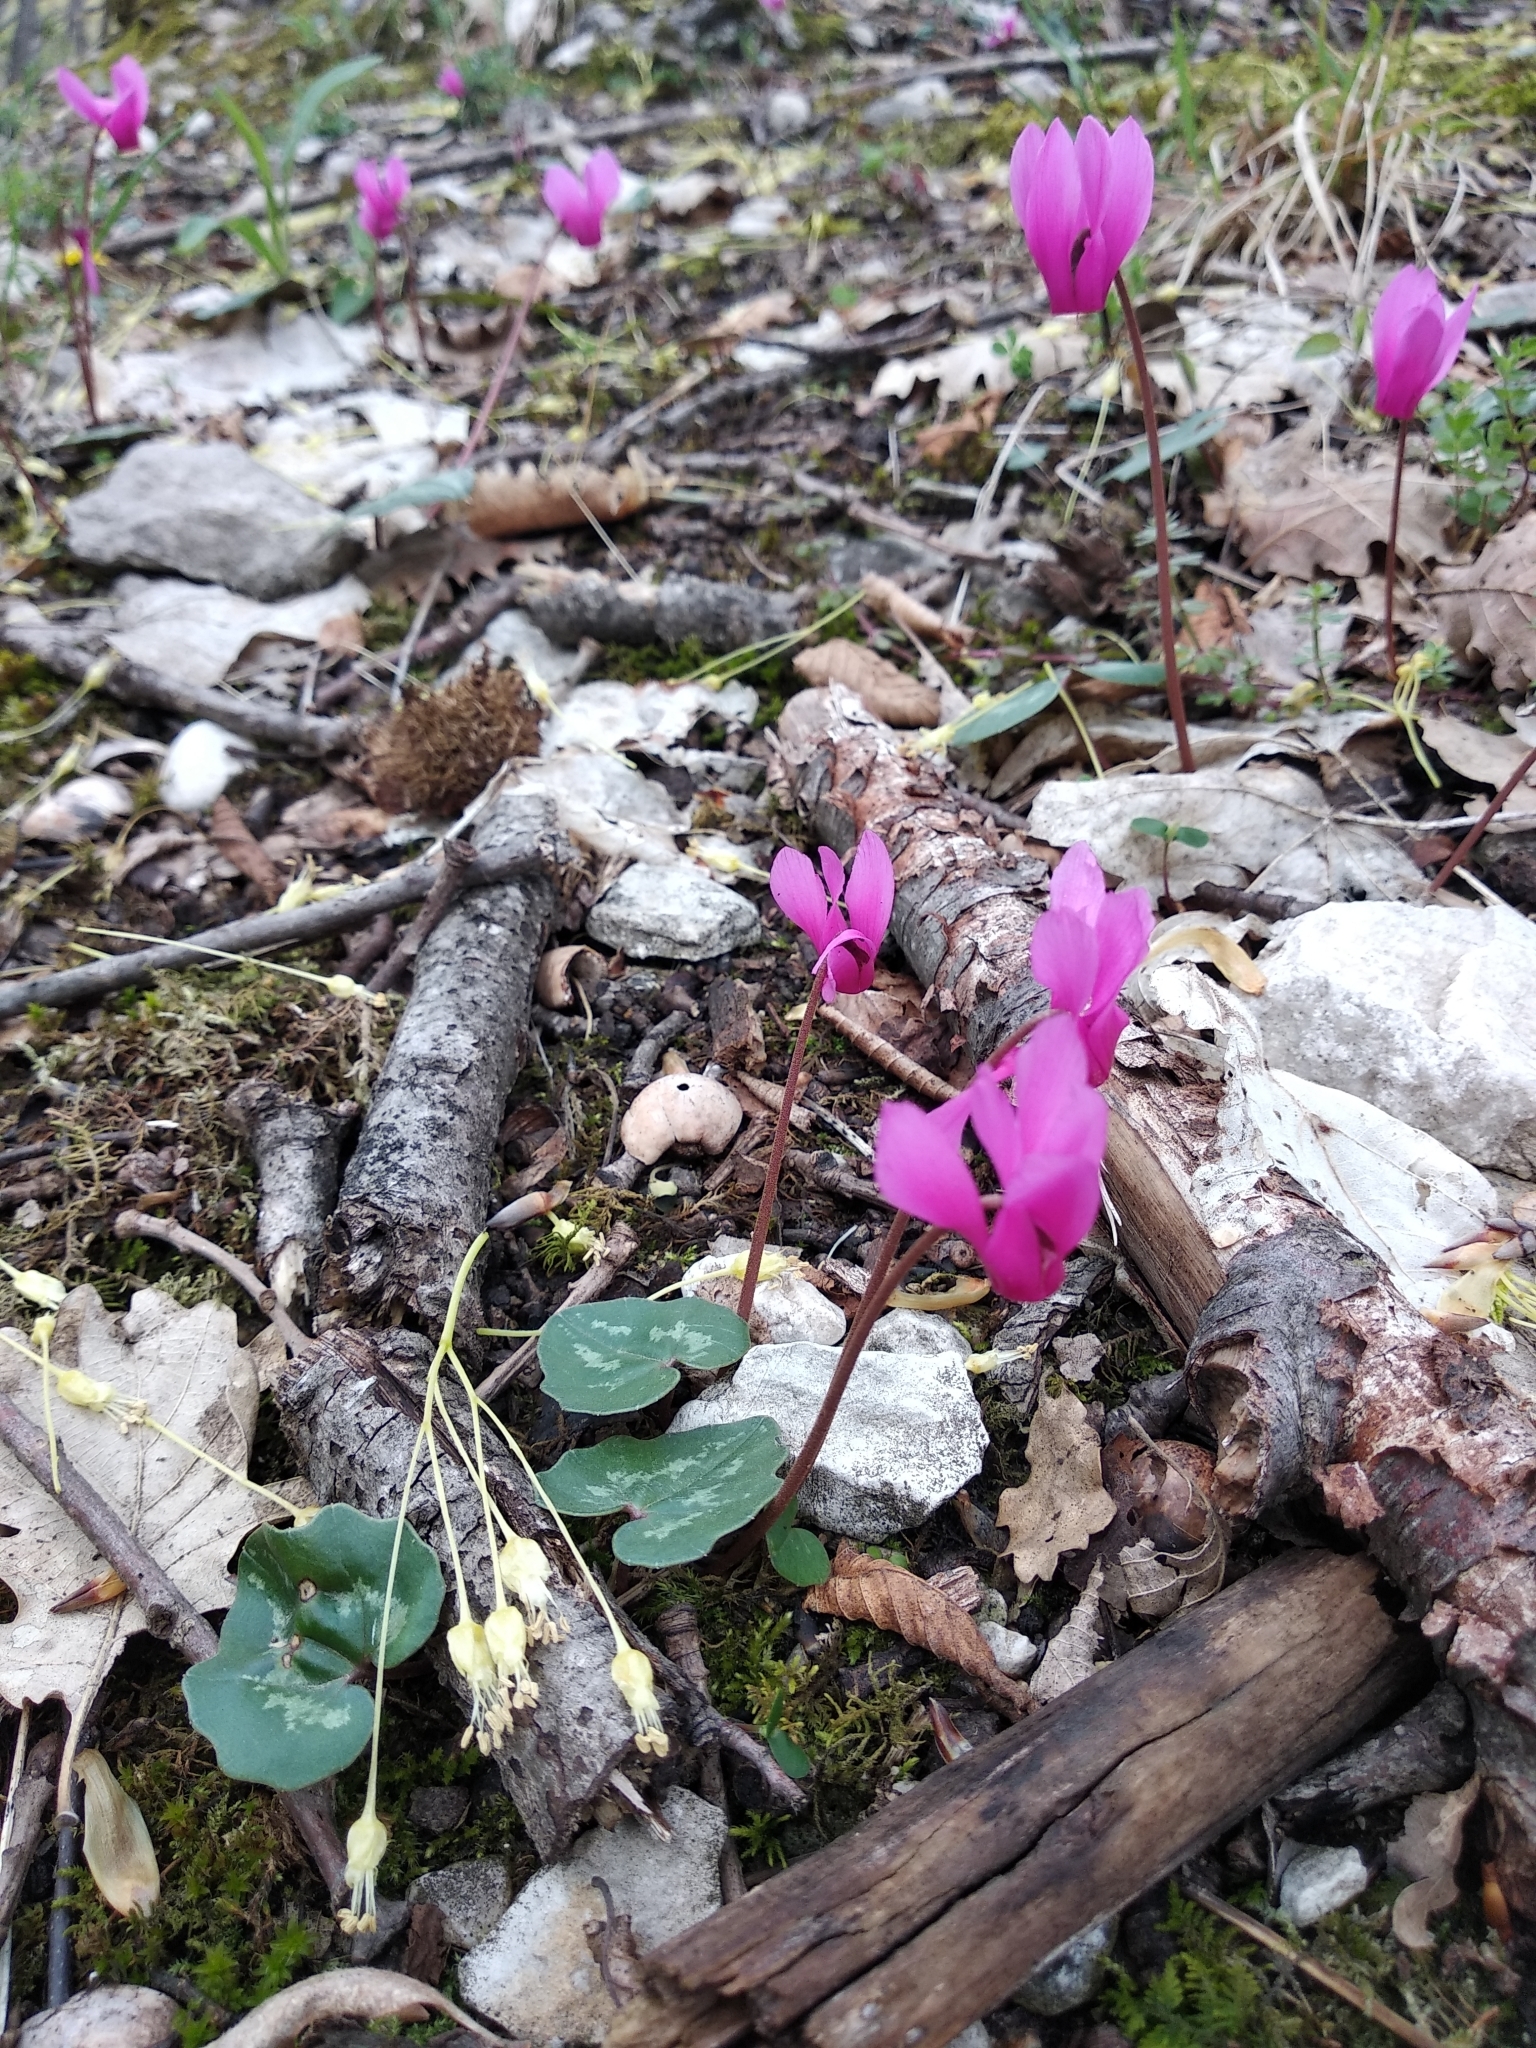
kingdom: Plantae
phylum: Tracheophyta
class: Magnoliopsida
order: Ericales
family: Primulaceae
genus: Cyclamen
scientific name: Cyclamen repandum
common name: Spring sowbread
